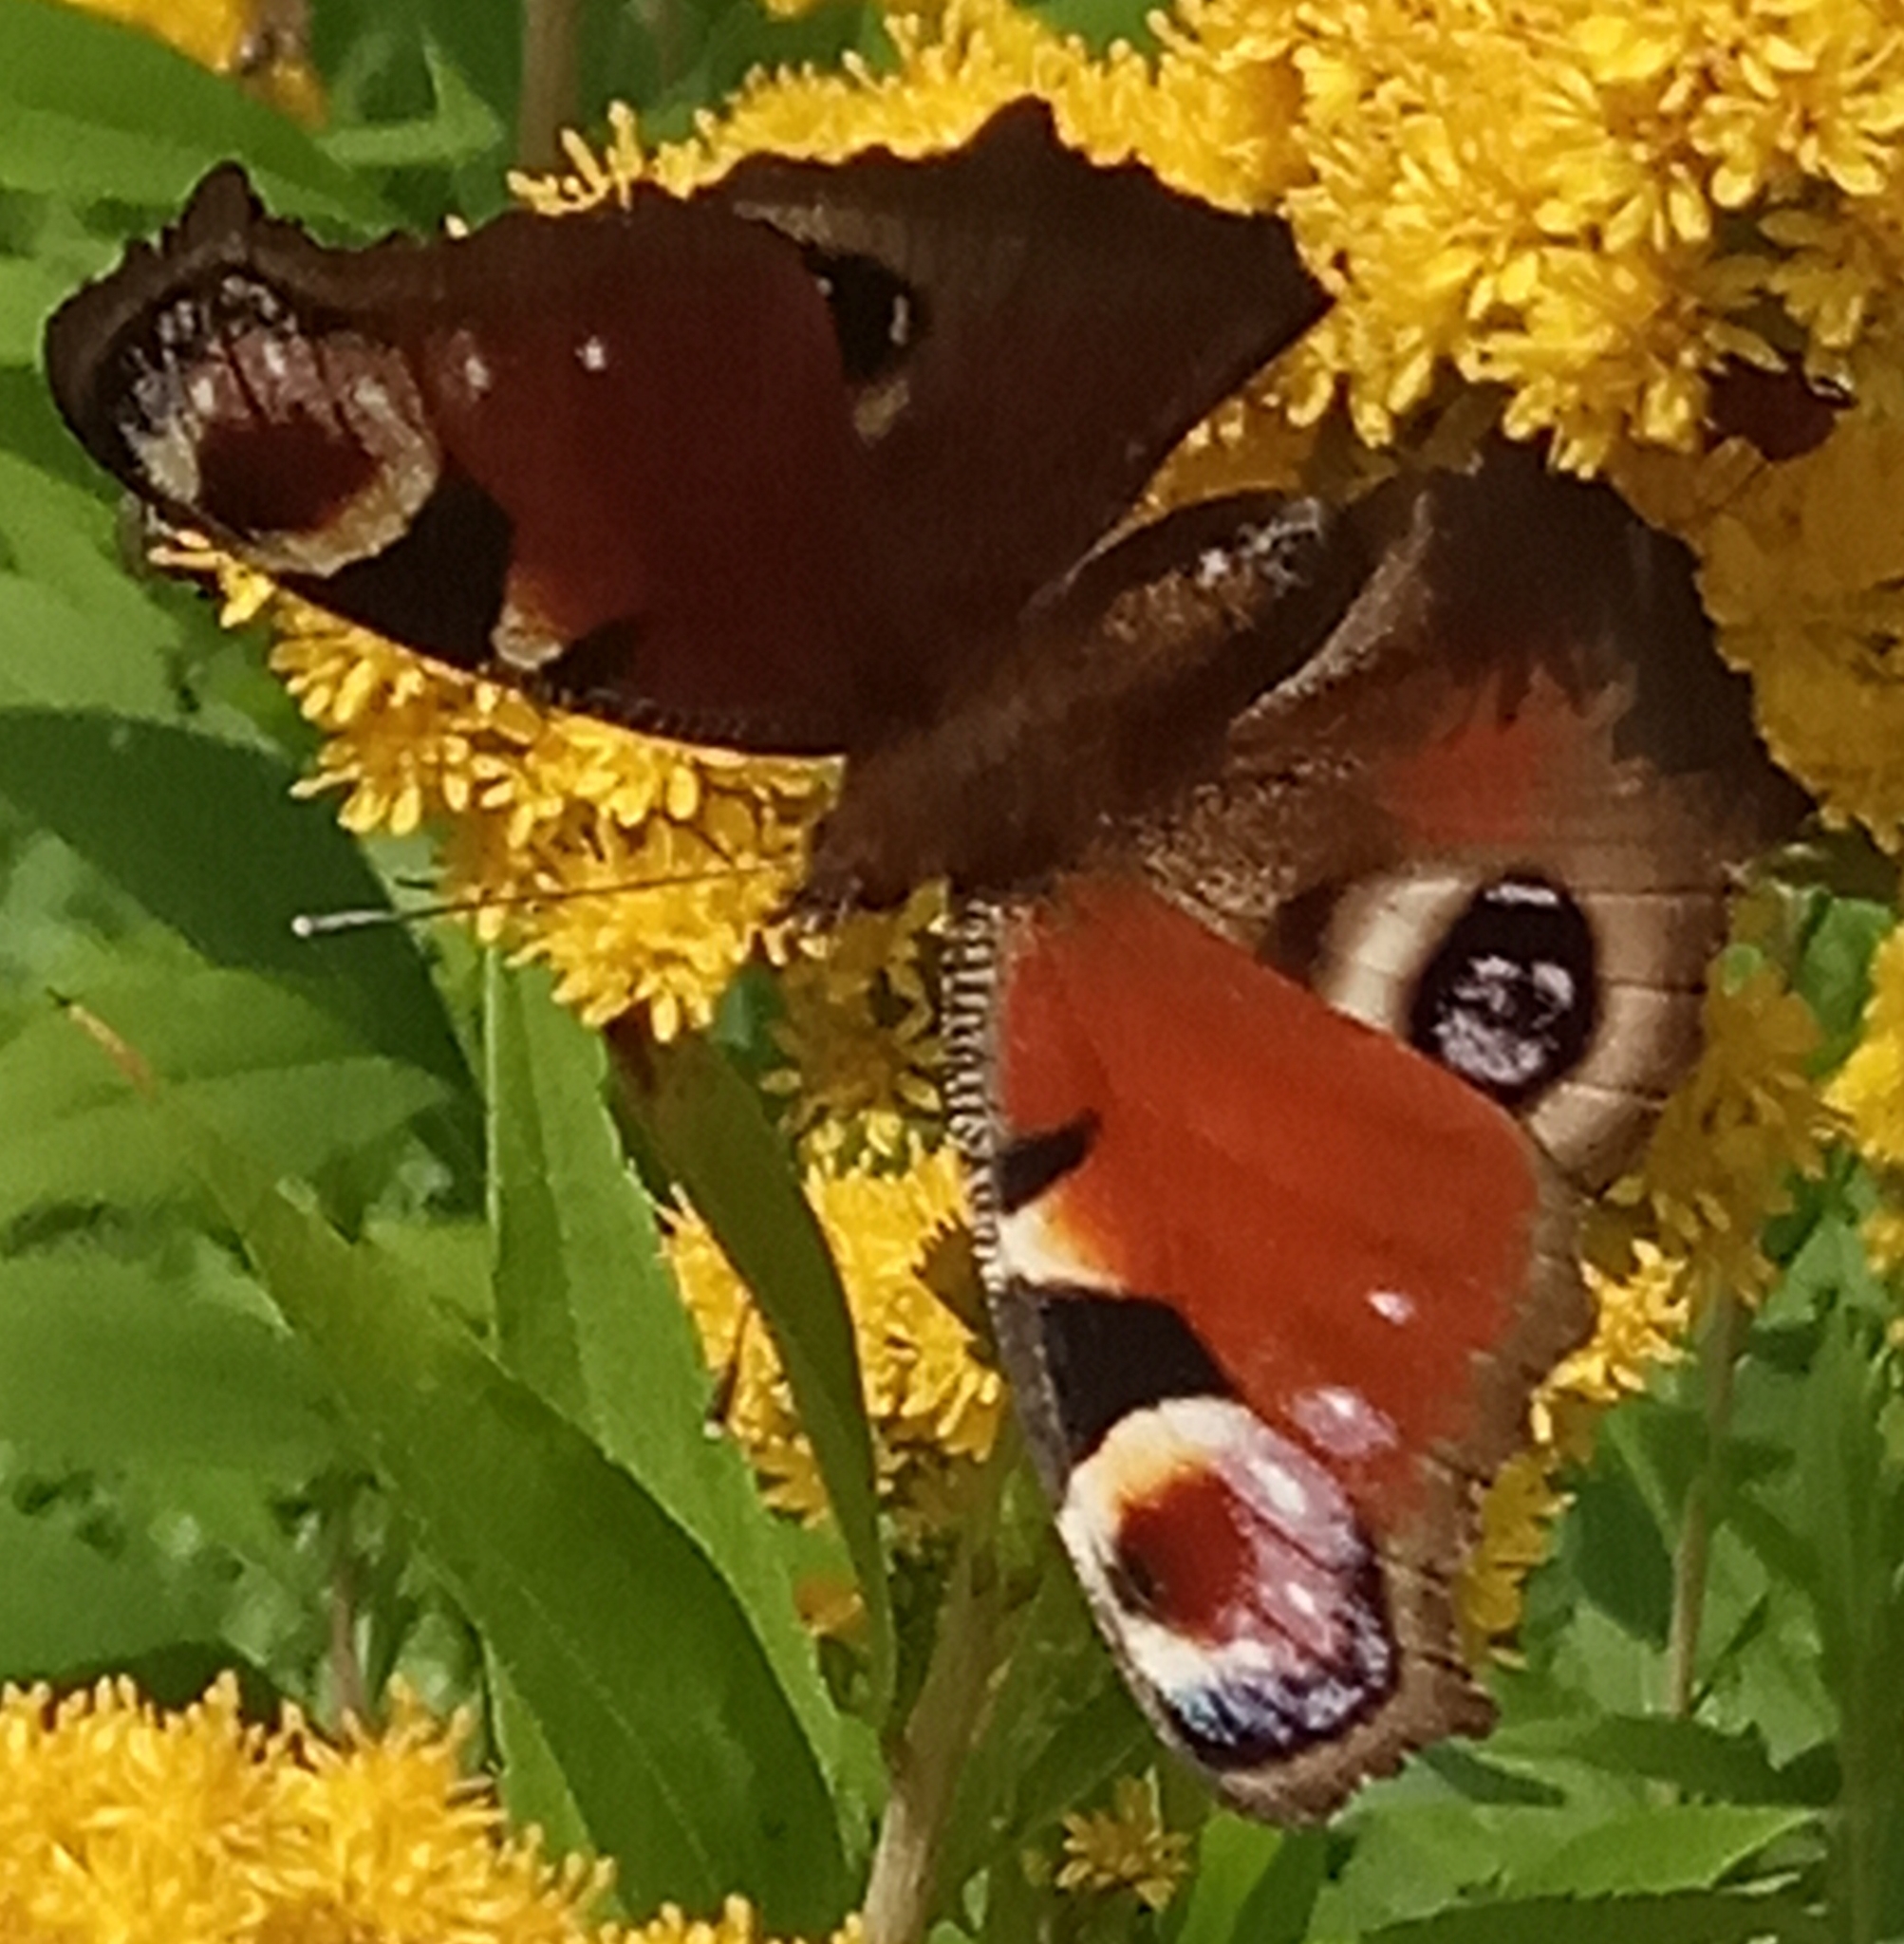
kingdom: Animalia
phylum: Arthropoda
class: Insecta
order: Lepidoptera
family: Nymphalidae
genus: Aglais
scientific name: Aglais io
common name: Peacock
